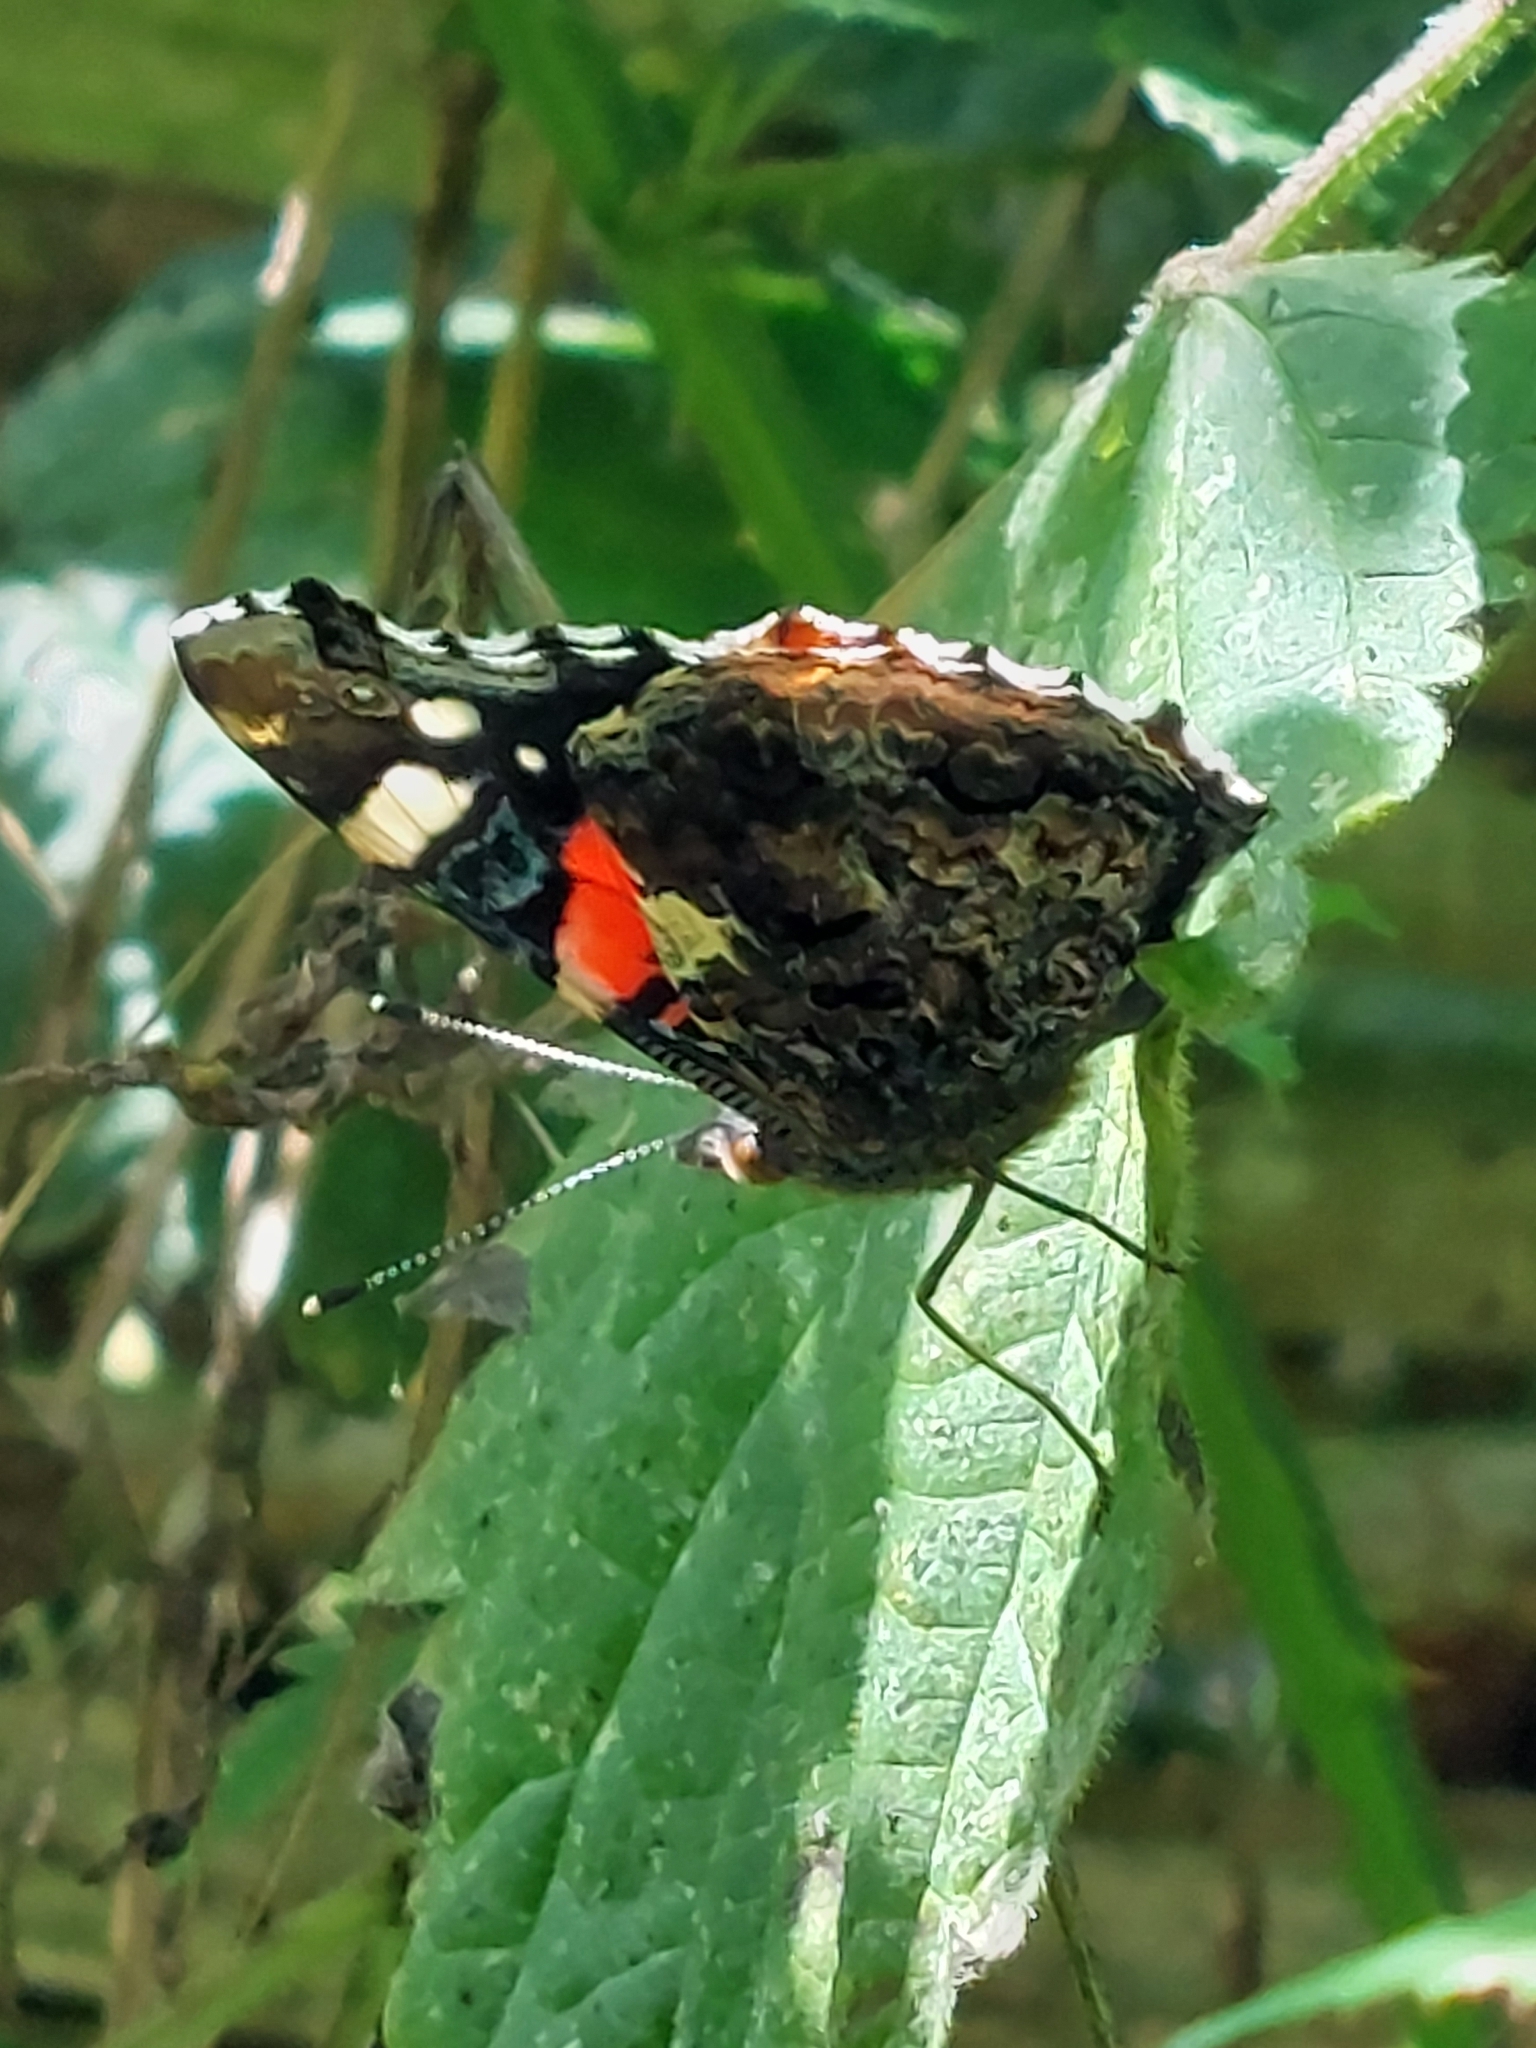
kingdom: Animalia
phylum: Arthropoda
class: Insecta
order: Lepidoptera
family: Nymphalidae
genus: Vanessa
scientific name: Vanessa atalanta
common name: Red admiral
